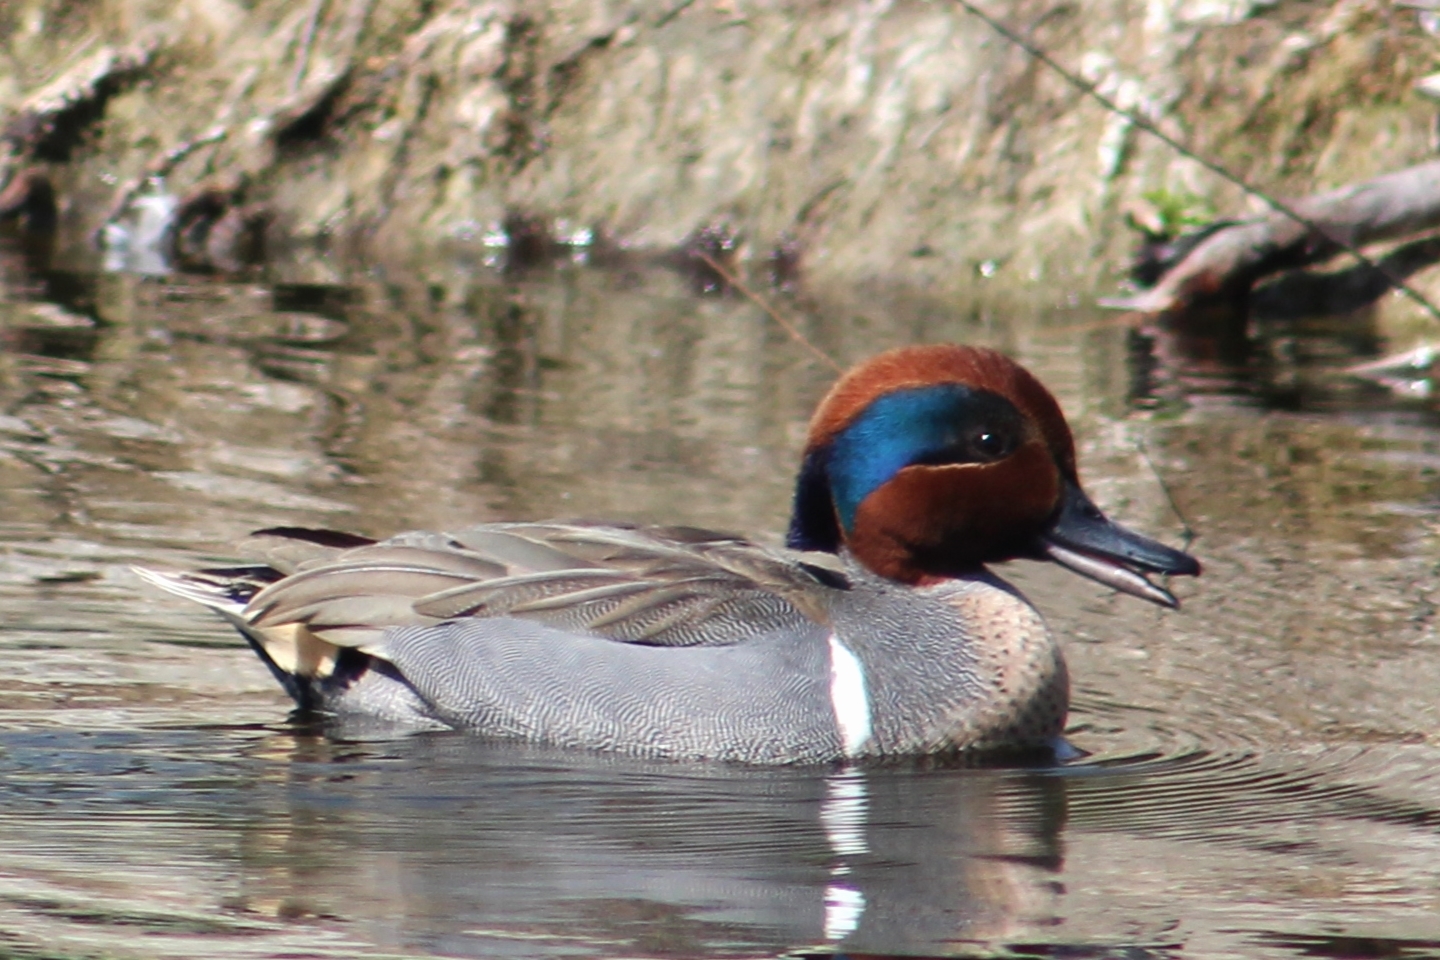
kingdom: Animalia
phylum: Chordata
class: Aves
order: Anseriformes
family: Anatidae
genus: Anas
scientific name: Anas crecca
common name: Eurasian teal
